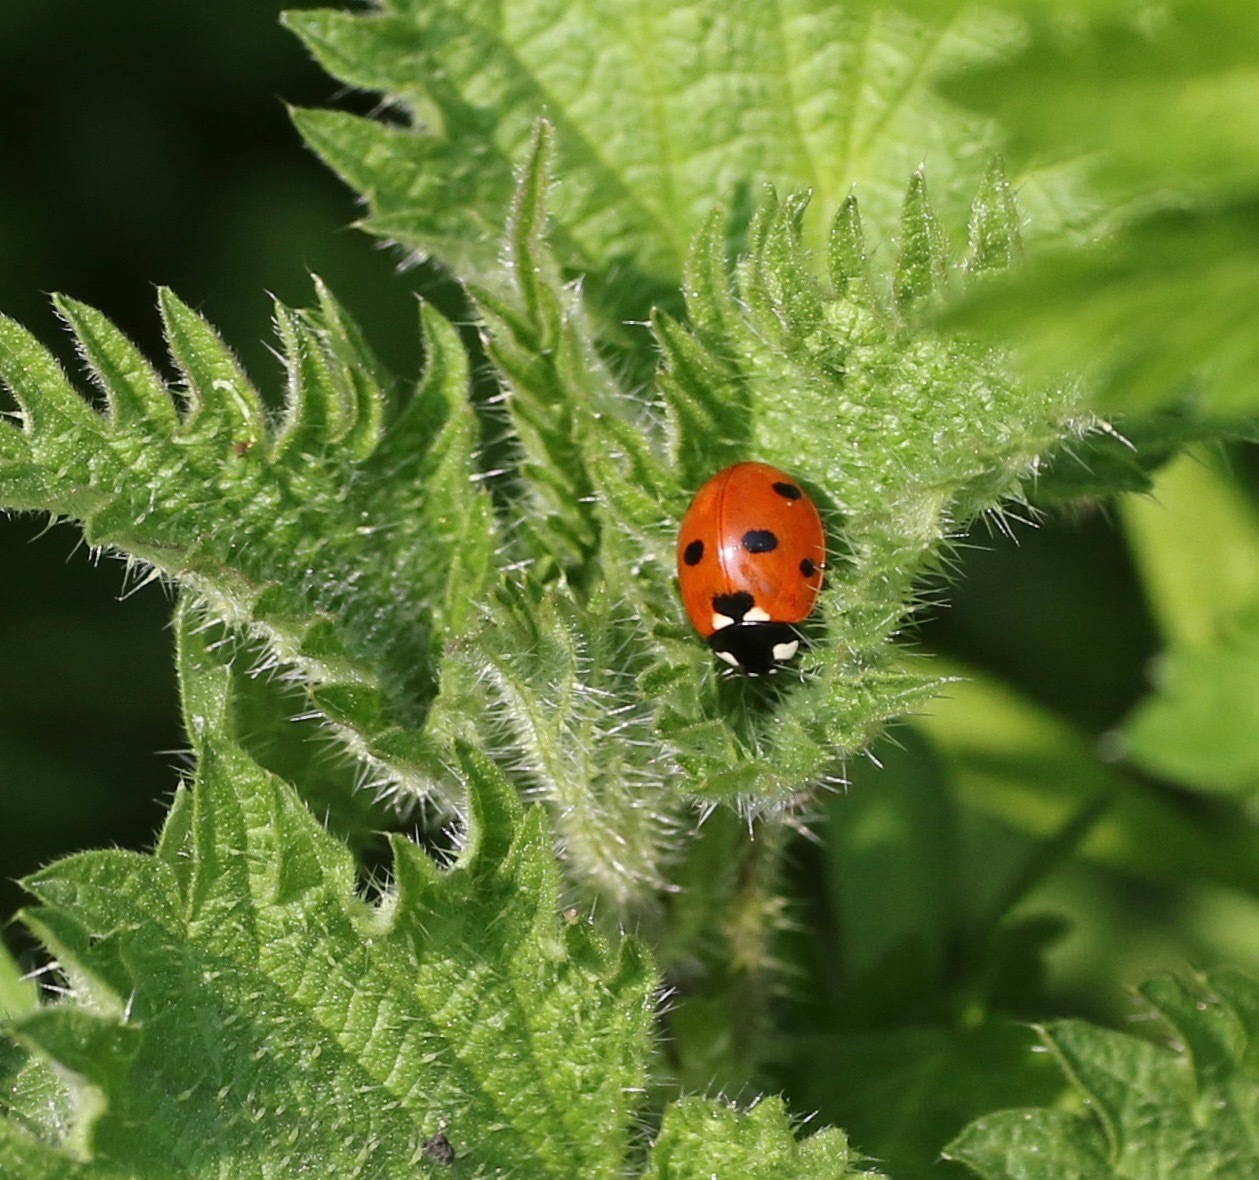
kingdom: Animalia
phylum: Arthropoda
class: Insecta
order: Coleoptera
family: Coccinellidae
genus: Coccinella
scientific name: Coccinella septempunctata
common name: Sevenspotted lady beetle
